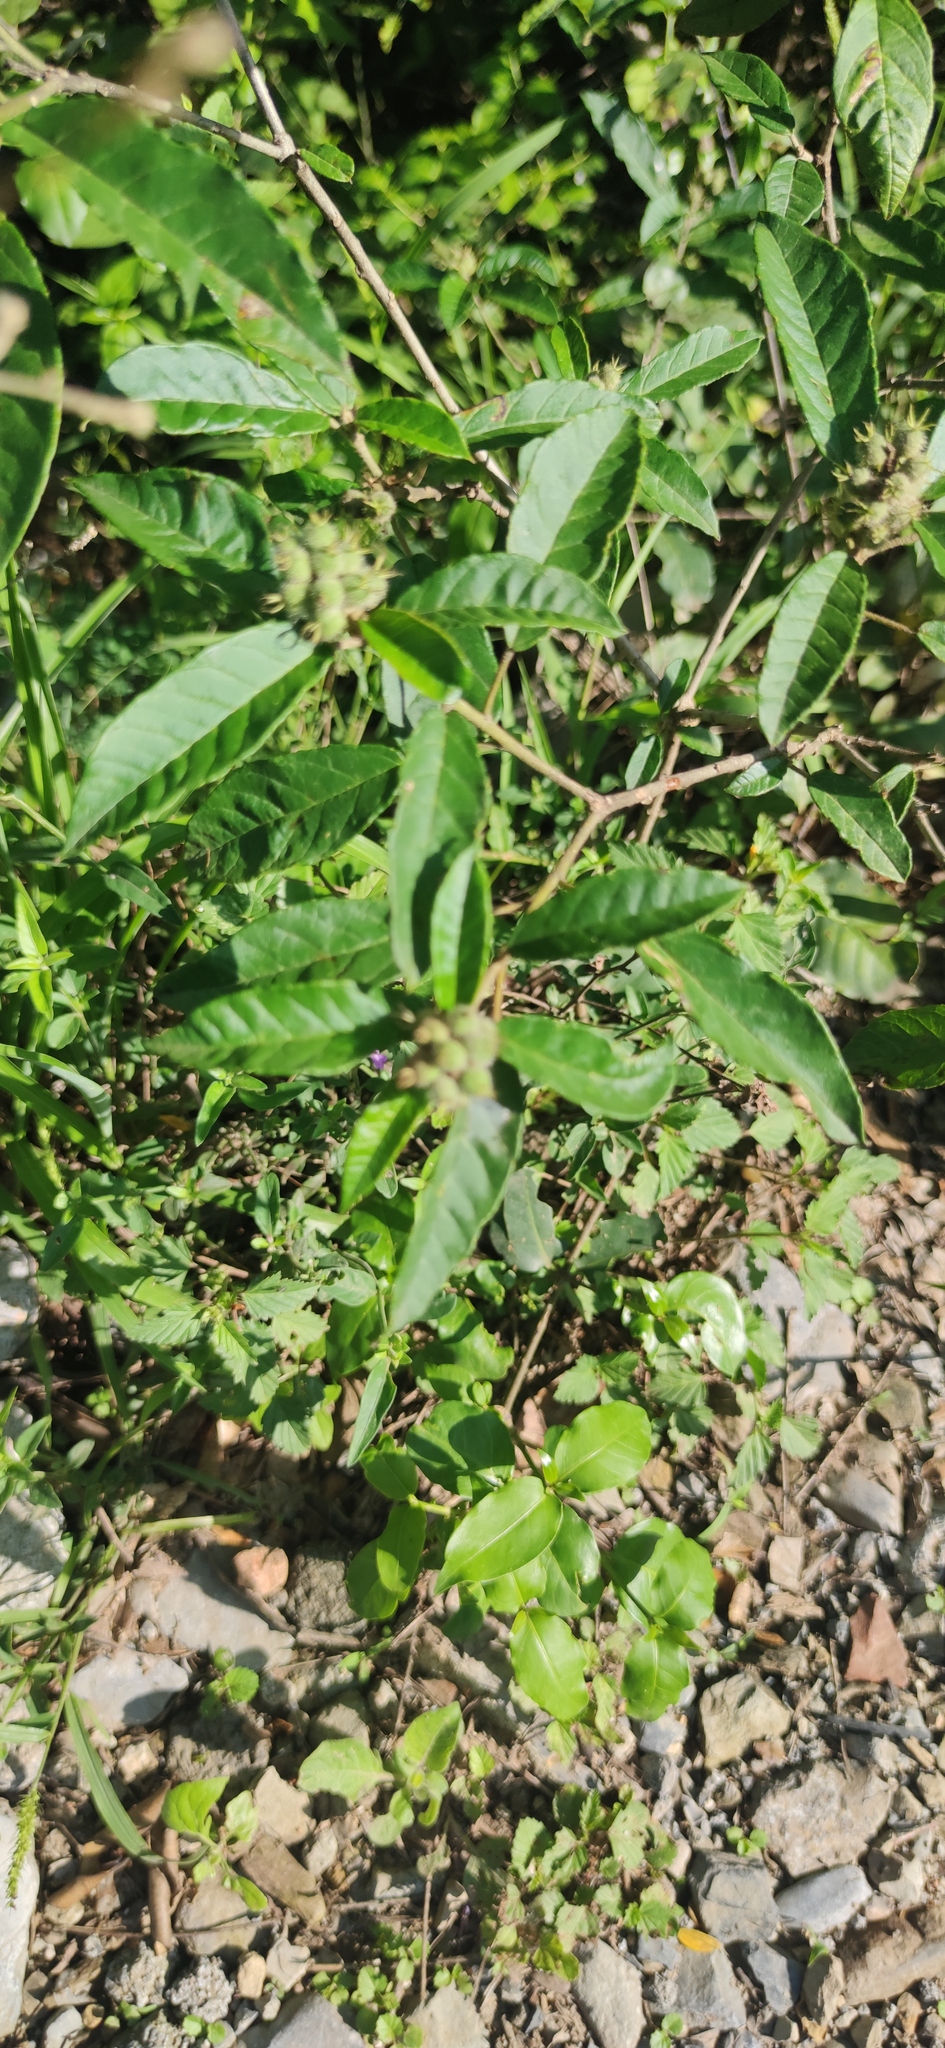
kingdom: Plantae
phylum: Tracheophyta
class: Magnoliopsida
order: Malpighiales
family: Euphorbiaceae
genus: Croton
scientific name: Croton cortesianus
